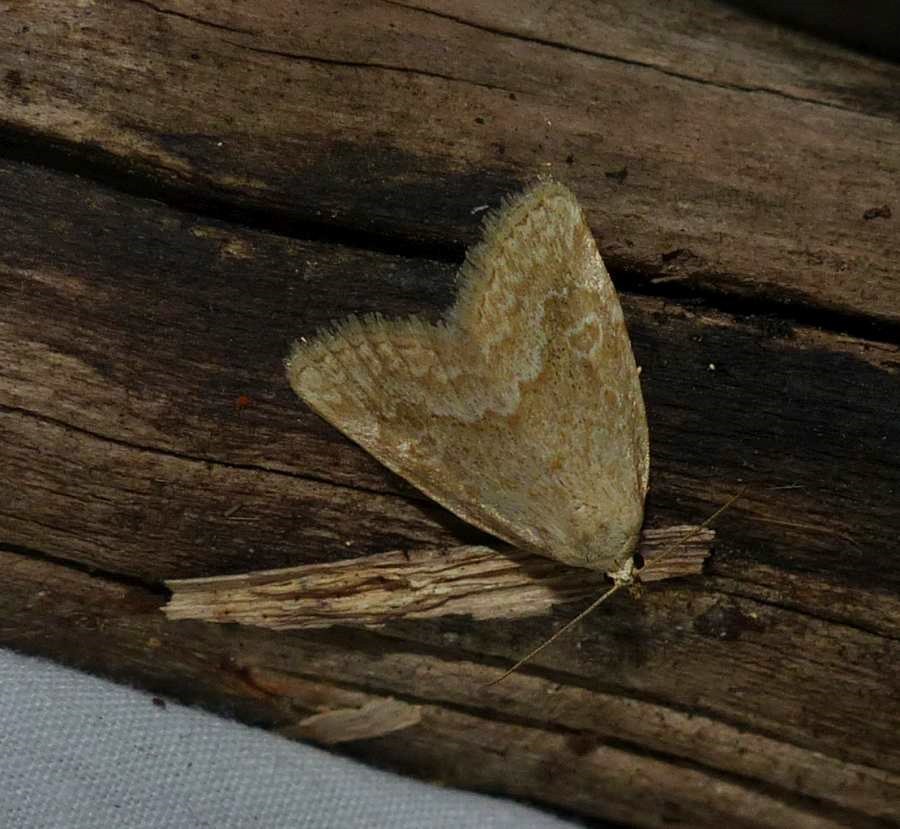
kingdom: Animalia
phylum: Arthropoda
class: Insecta
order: Lepidoptera
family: Noctuidae
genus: Protodeltote
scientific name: Protodeltote albidula
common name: Pale glyph
